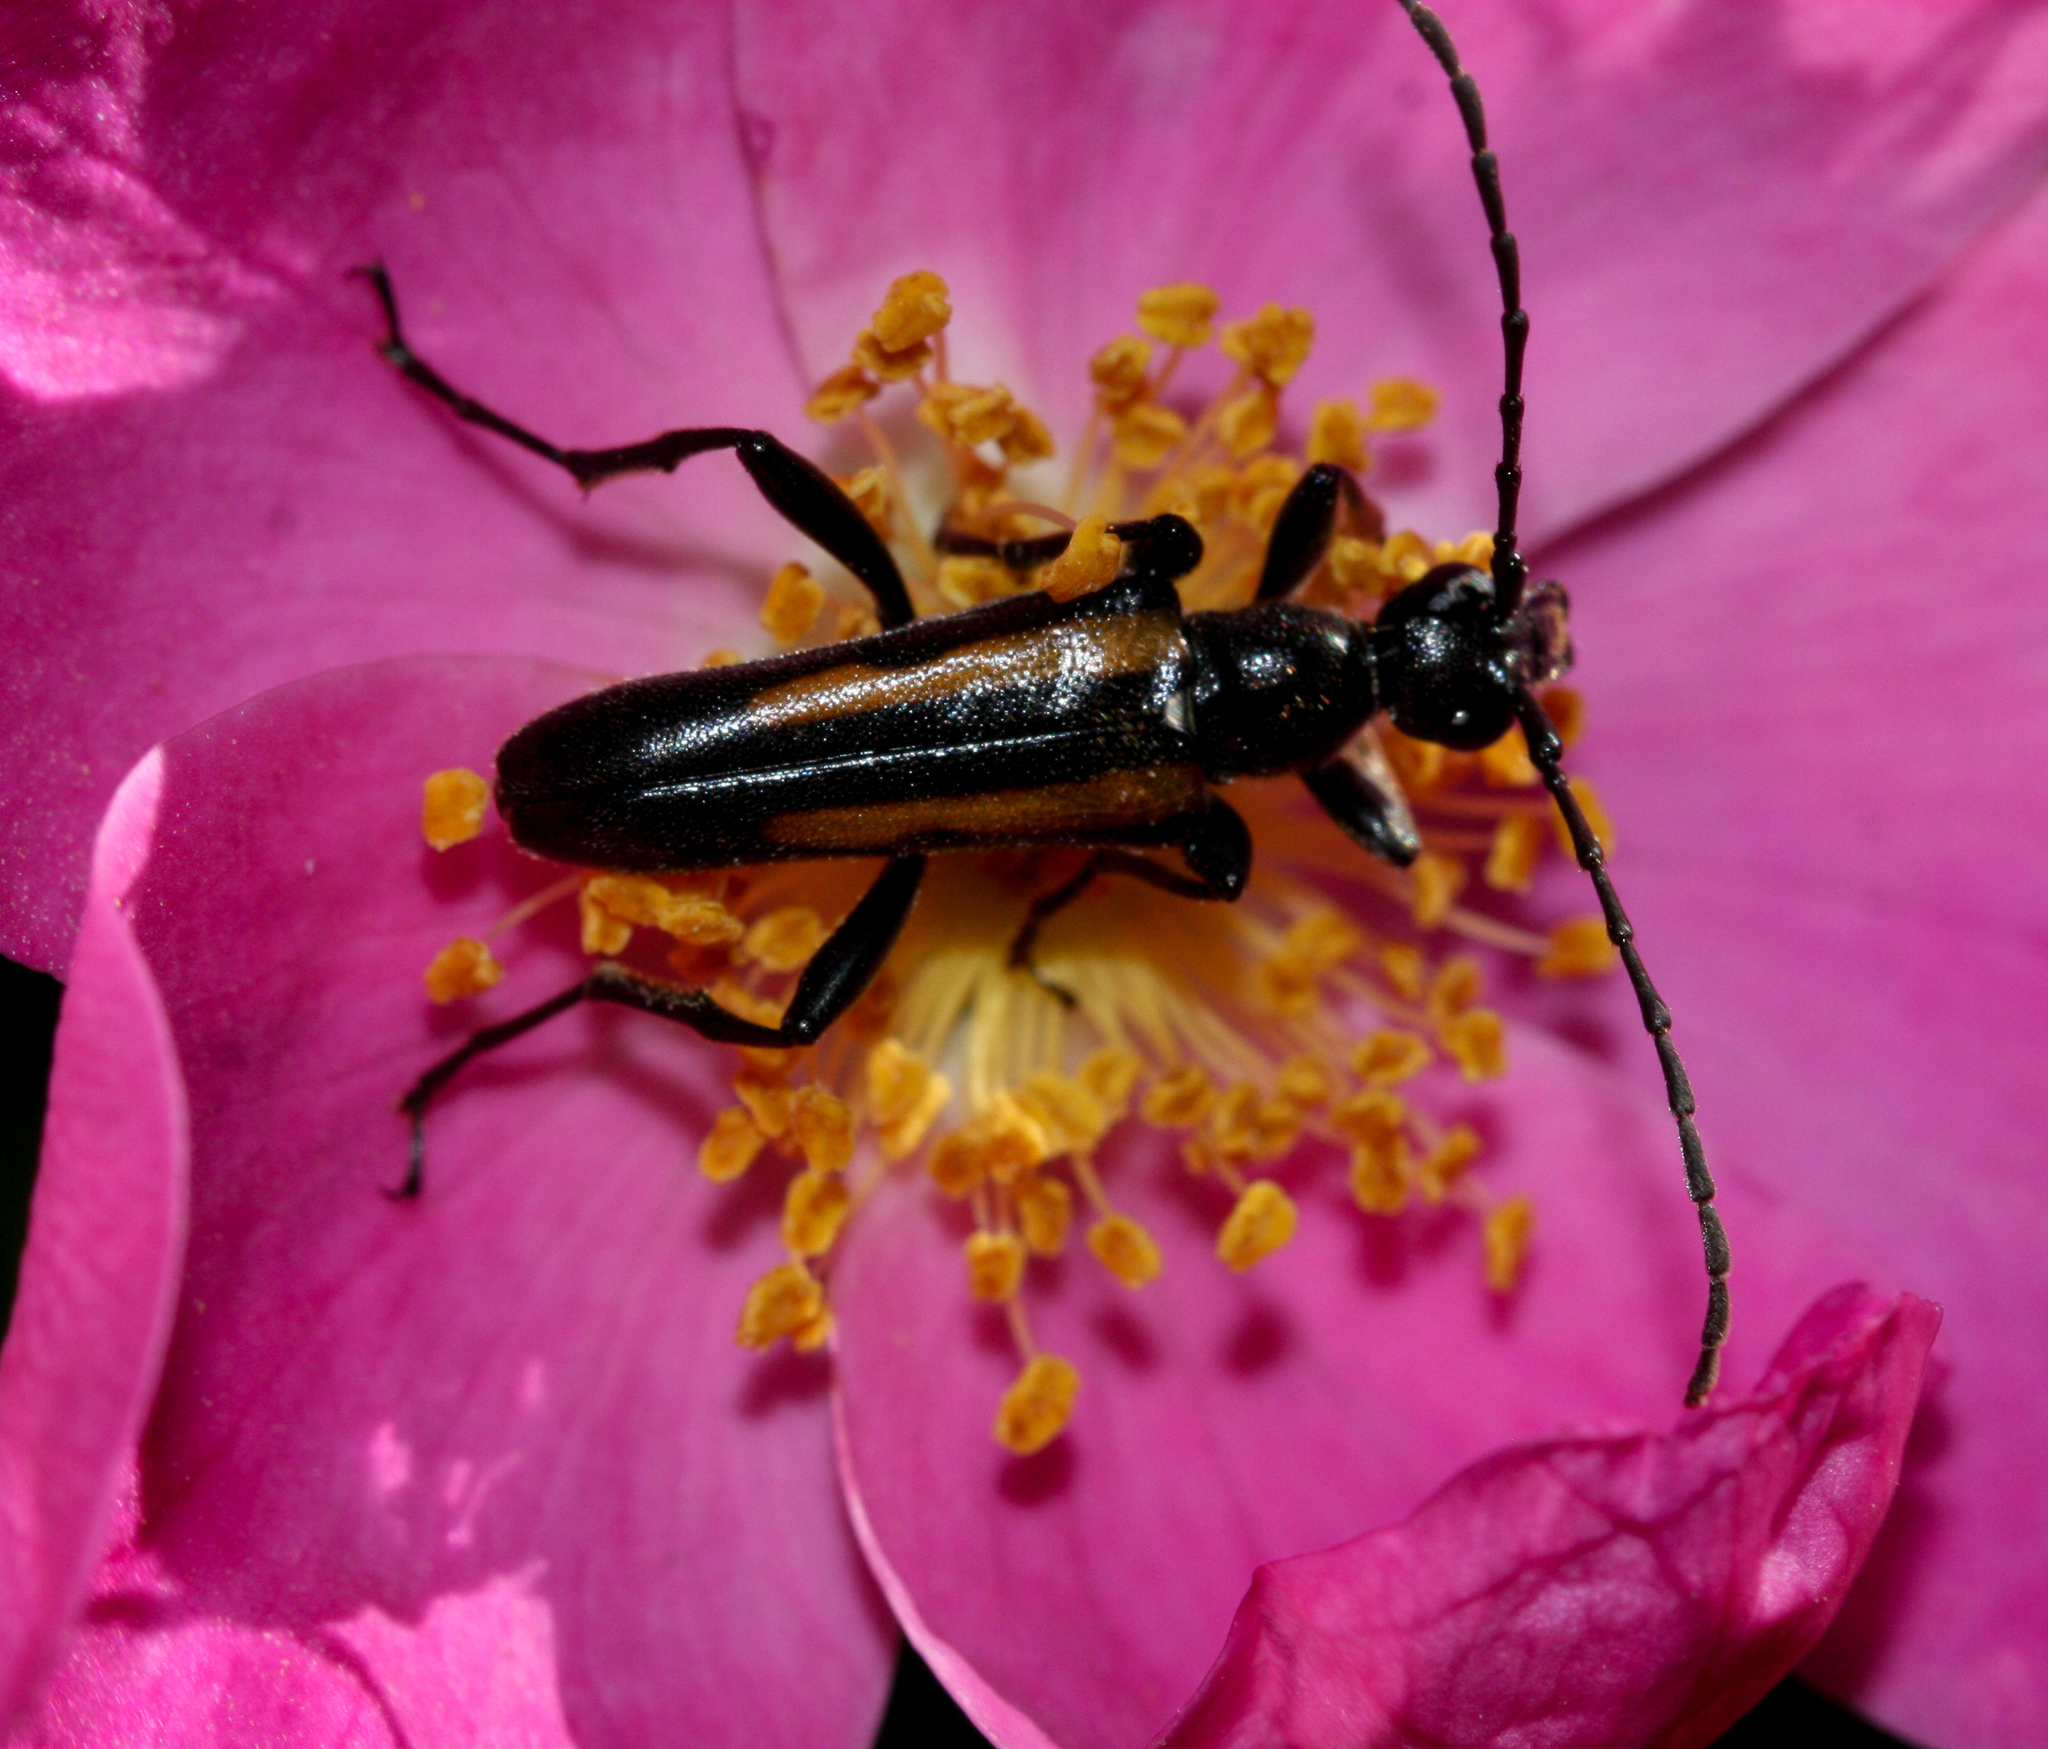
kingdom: Animalia
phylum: Arthropoda
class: Insecta
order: Coleoptera
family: Cerambycidae
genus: Strangalepta
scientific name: Strangalepta abbreviata
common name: Strangalepta flower longhorn beetle
